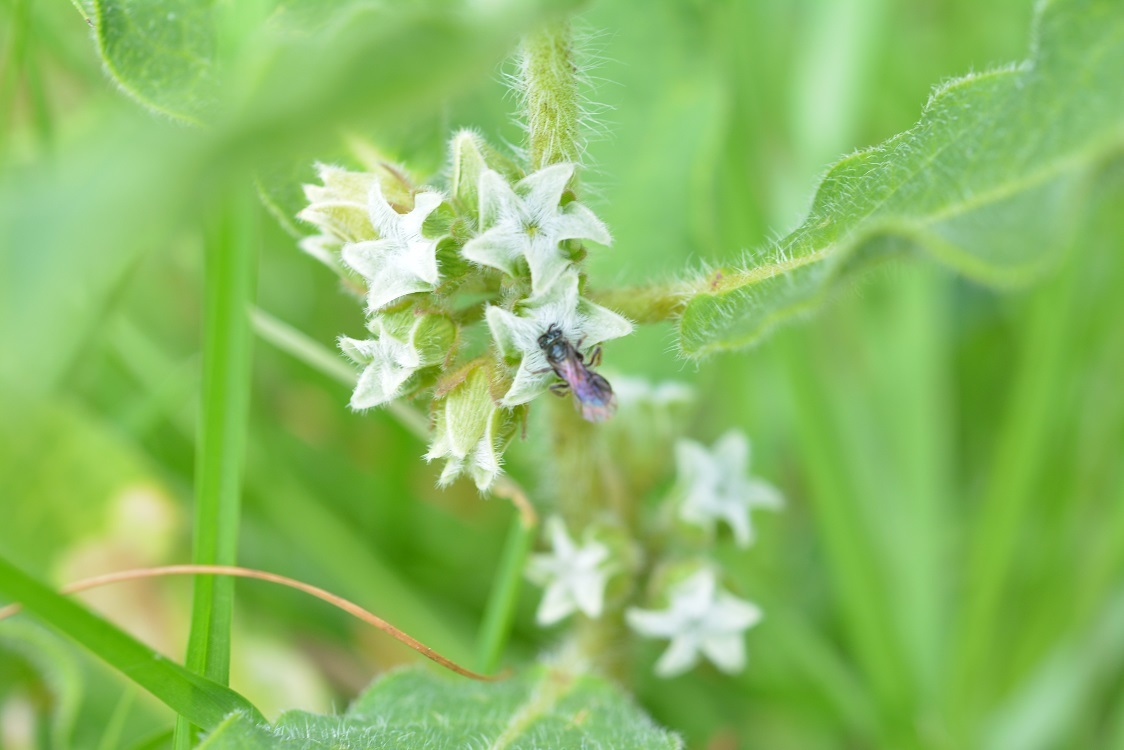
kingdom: Plantae
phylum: Tracheophyta
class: Magnoliopsida
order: Gentianales
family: Apocynaceae
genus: Pherotrichis
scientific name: Pherotrichis villosa
